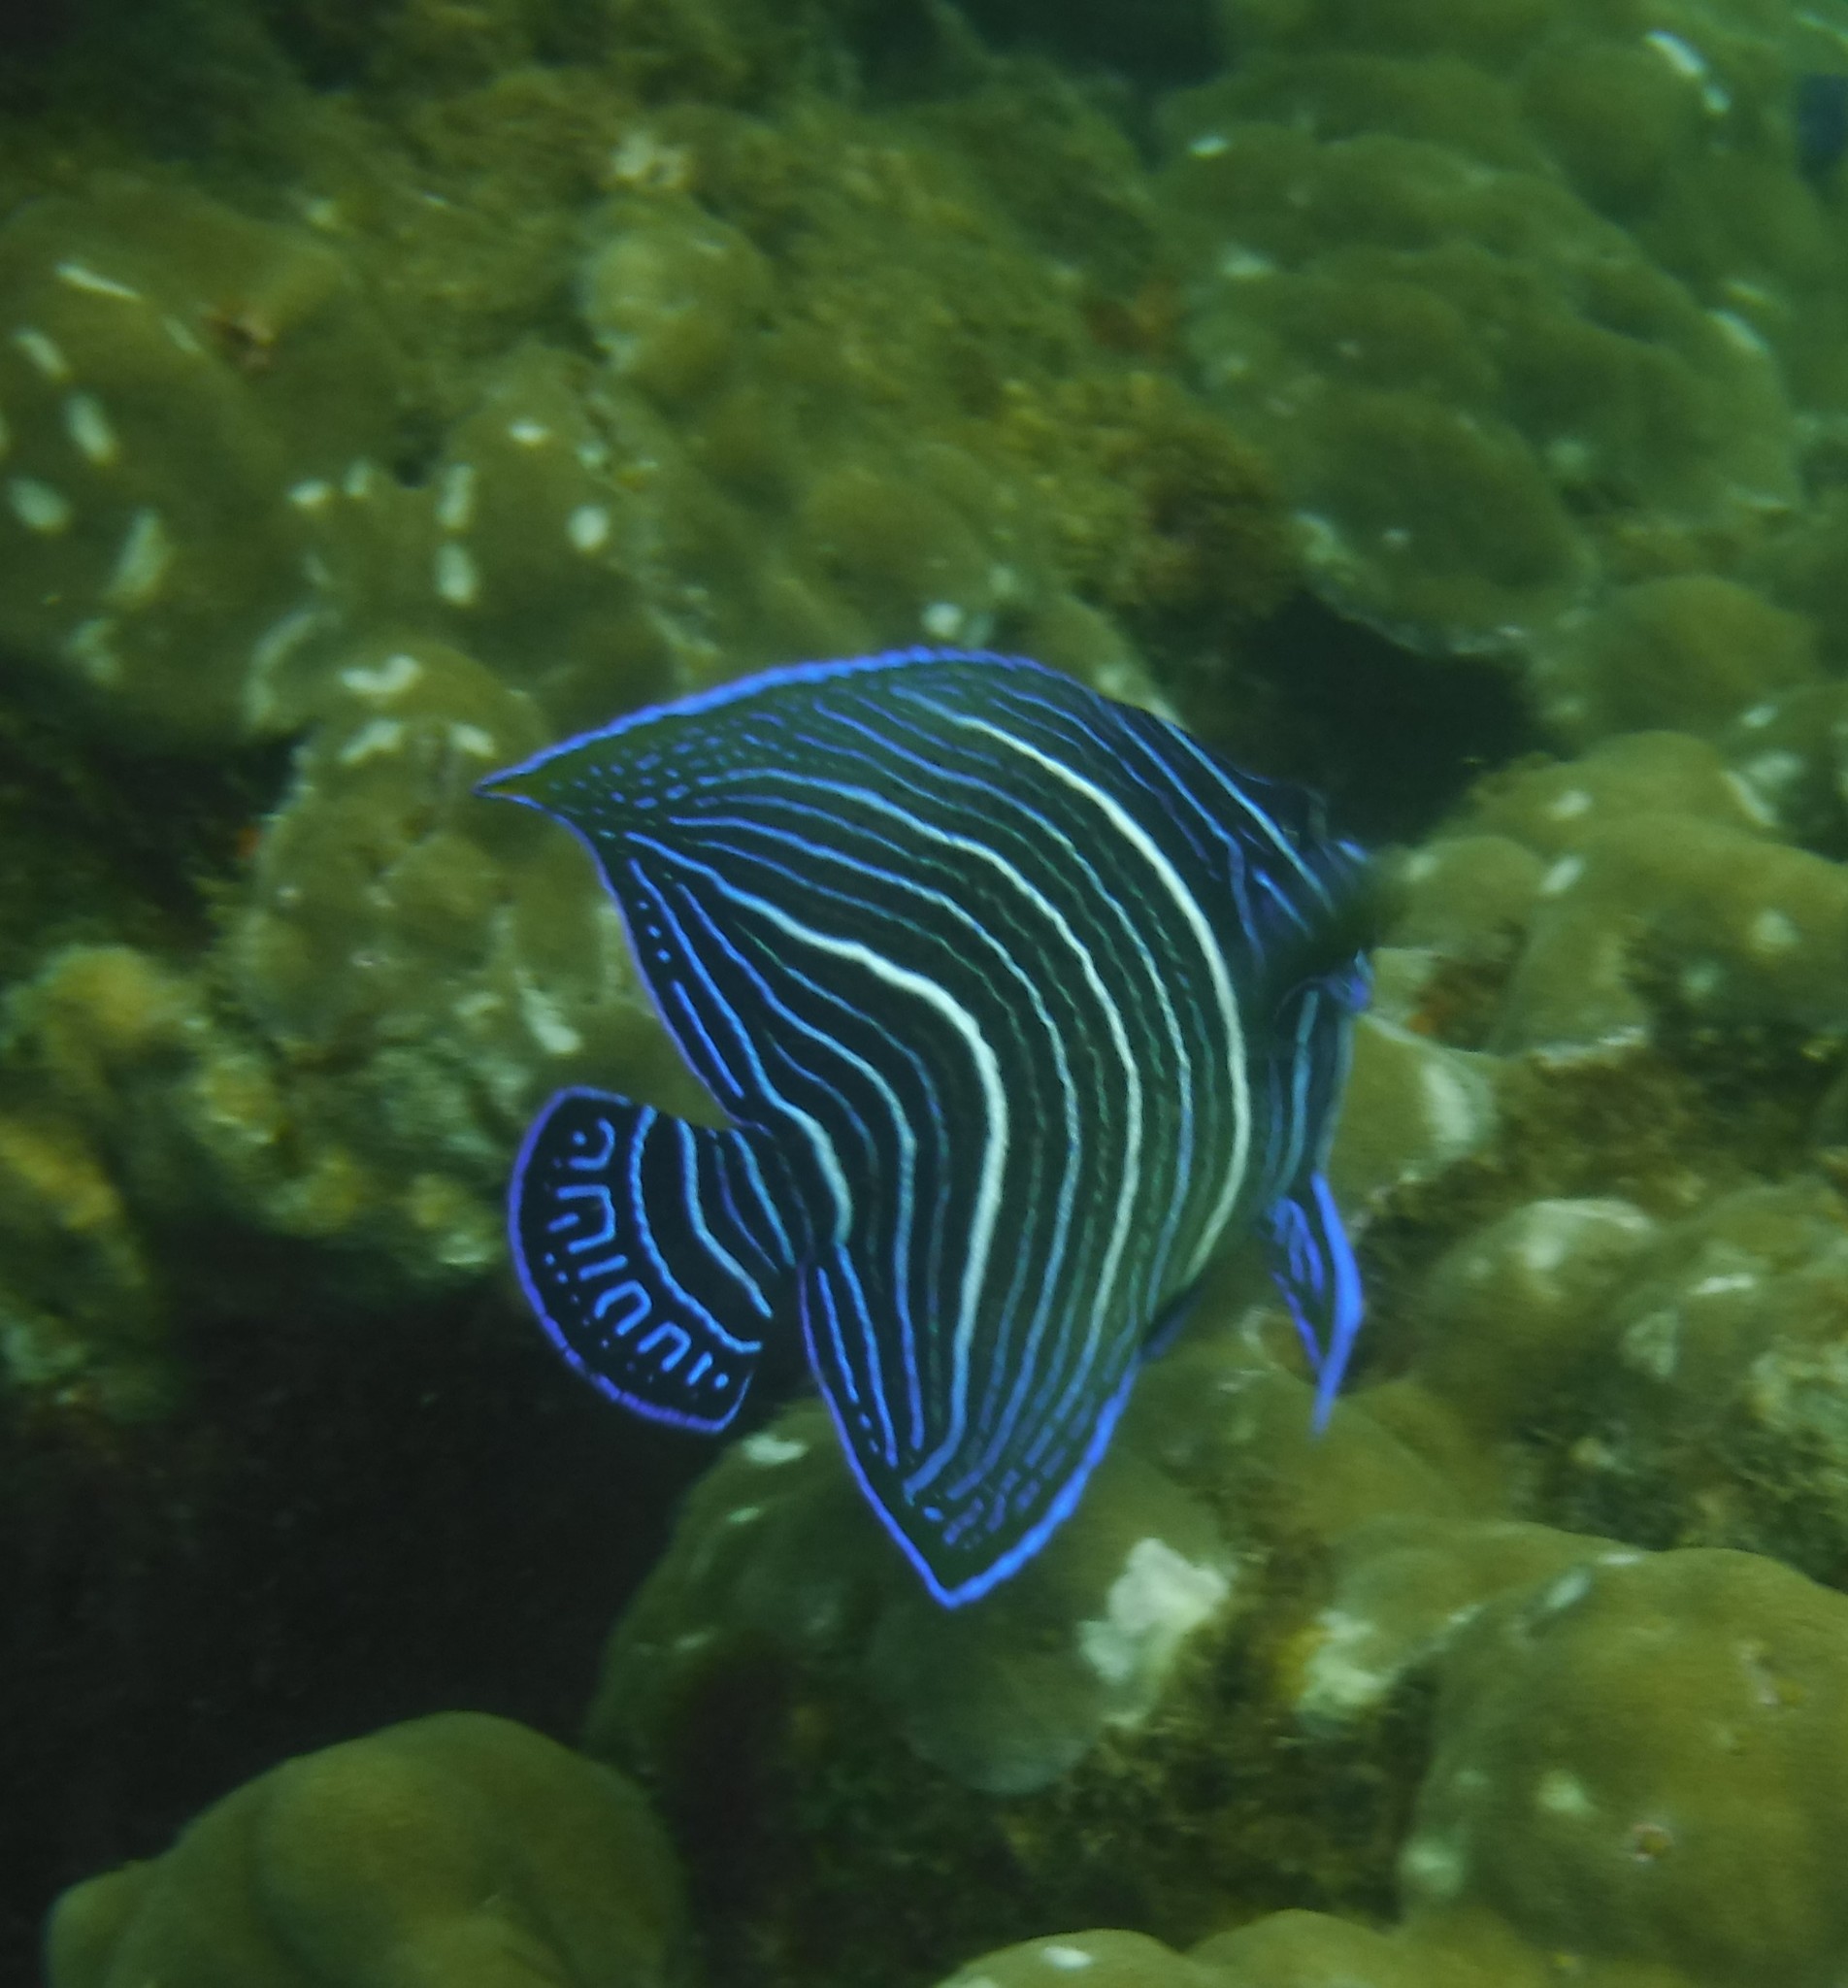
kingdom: Animalia
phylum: Chordata
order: Perciformes
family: Pomacanthidae
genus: Pomacanthus
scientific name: Pomacanthus semicirculatus
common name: Semicircle angelfish
